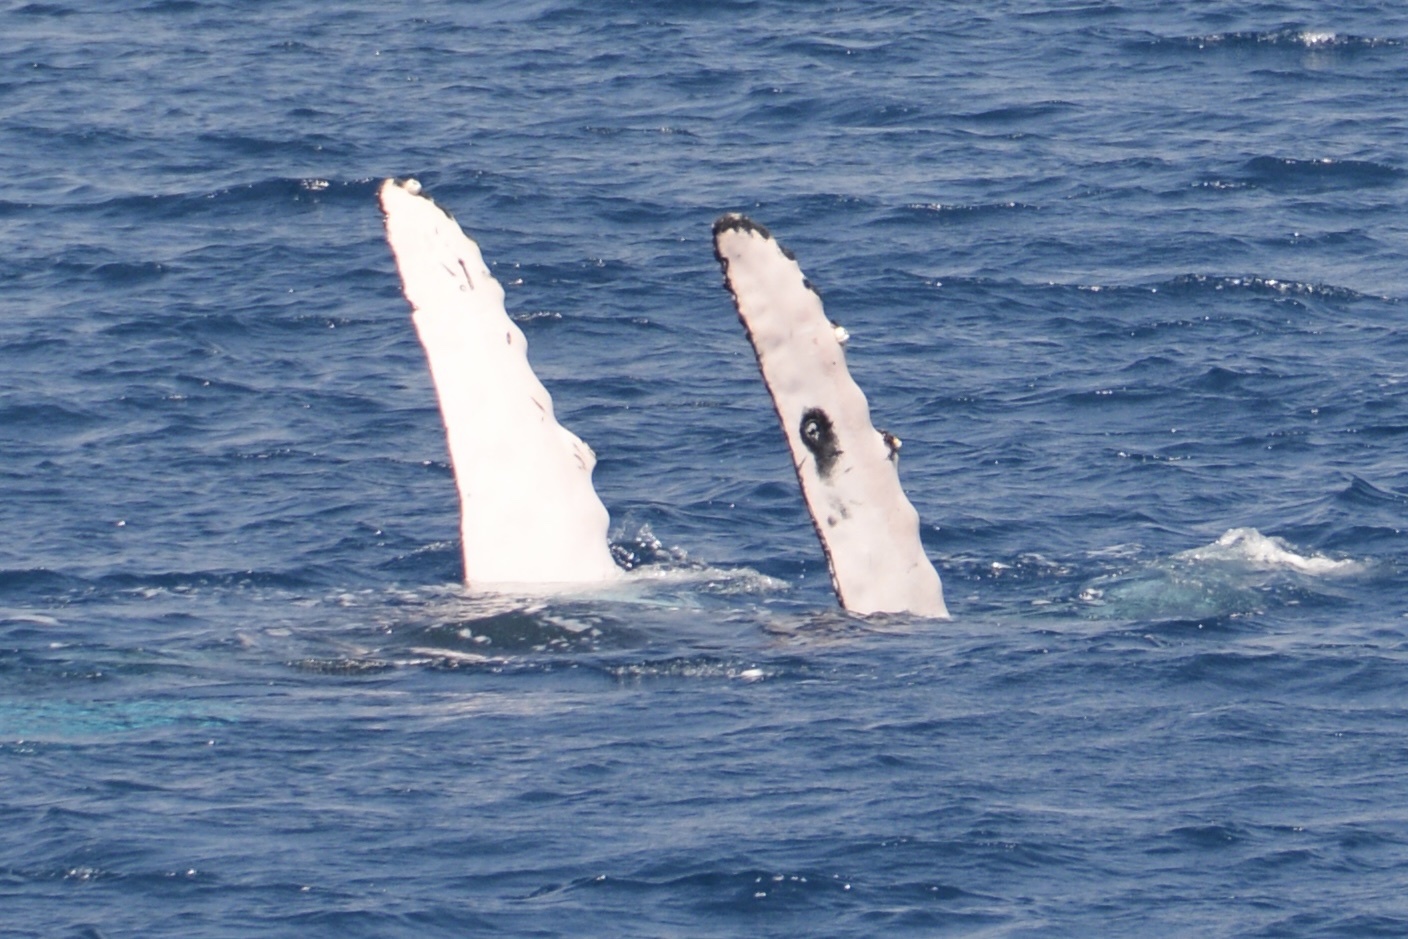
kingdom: Animalia
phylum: Chordata
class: Mammalia
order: Cetacea
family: Balaenopteridae
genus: Megaptera
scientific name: Megaptera novaeangliae
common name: Humpback whale
